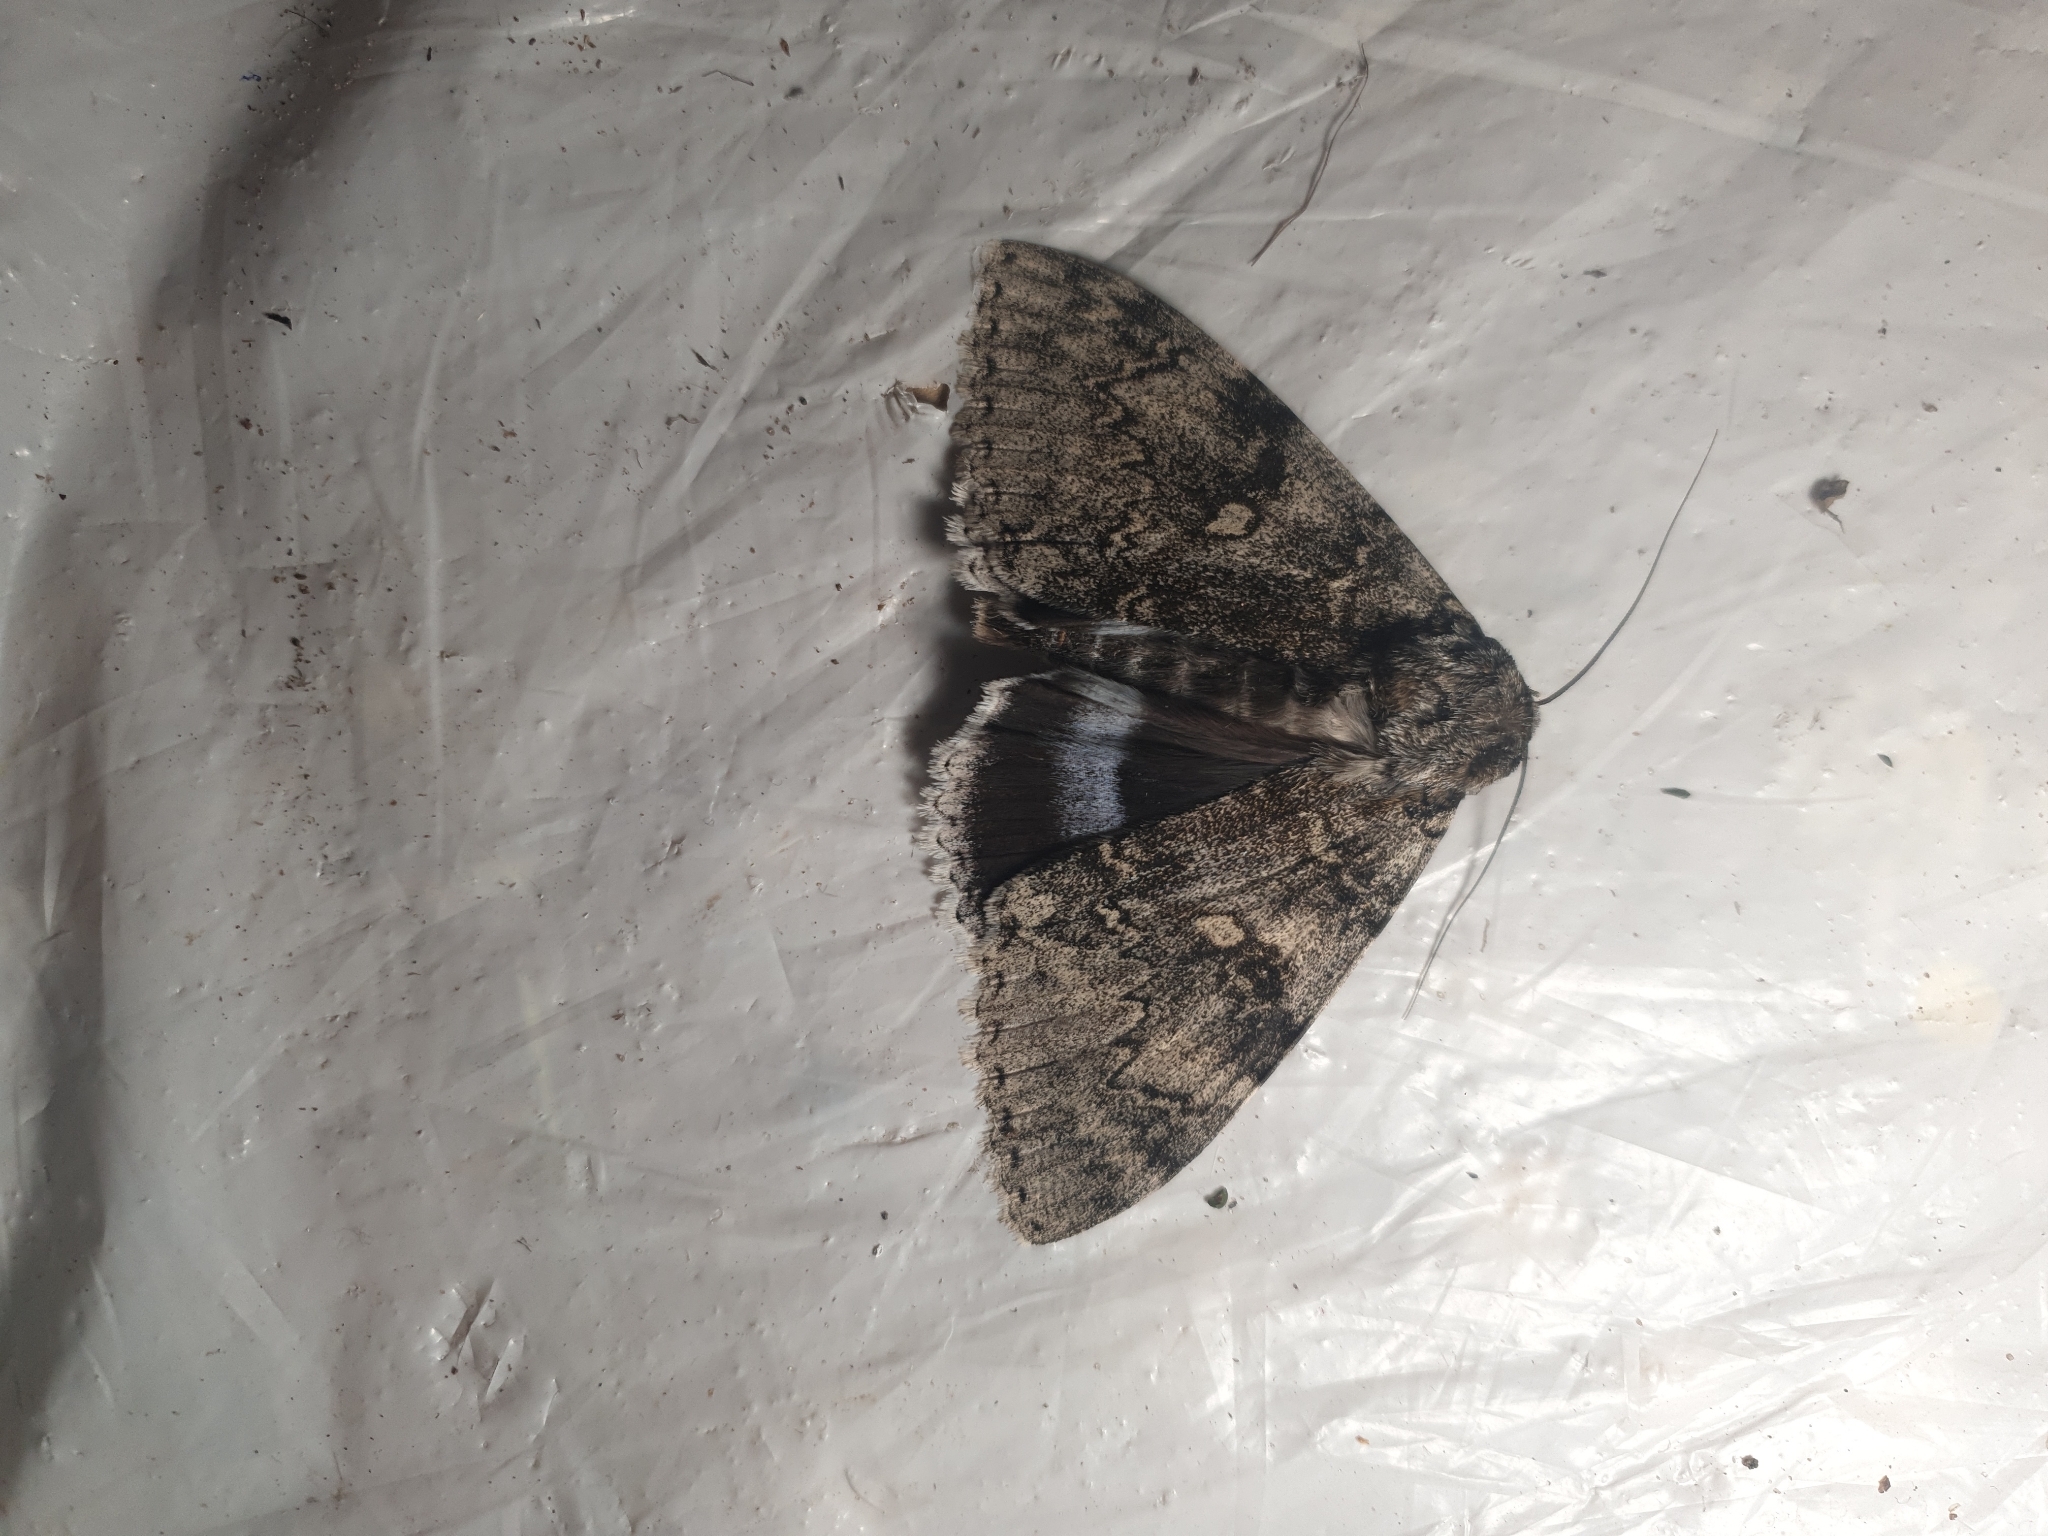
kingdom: Animalia
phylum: Arthropoda
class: Insecta
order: Lepidoptera
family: Erebidae
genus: Catocala
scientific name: Catocala fraxini
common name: Clifden nonpareil
